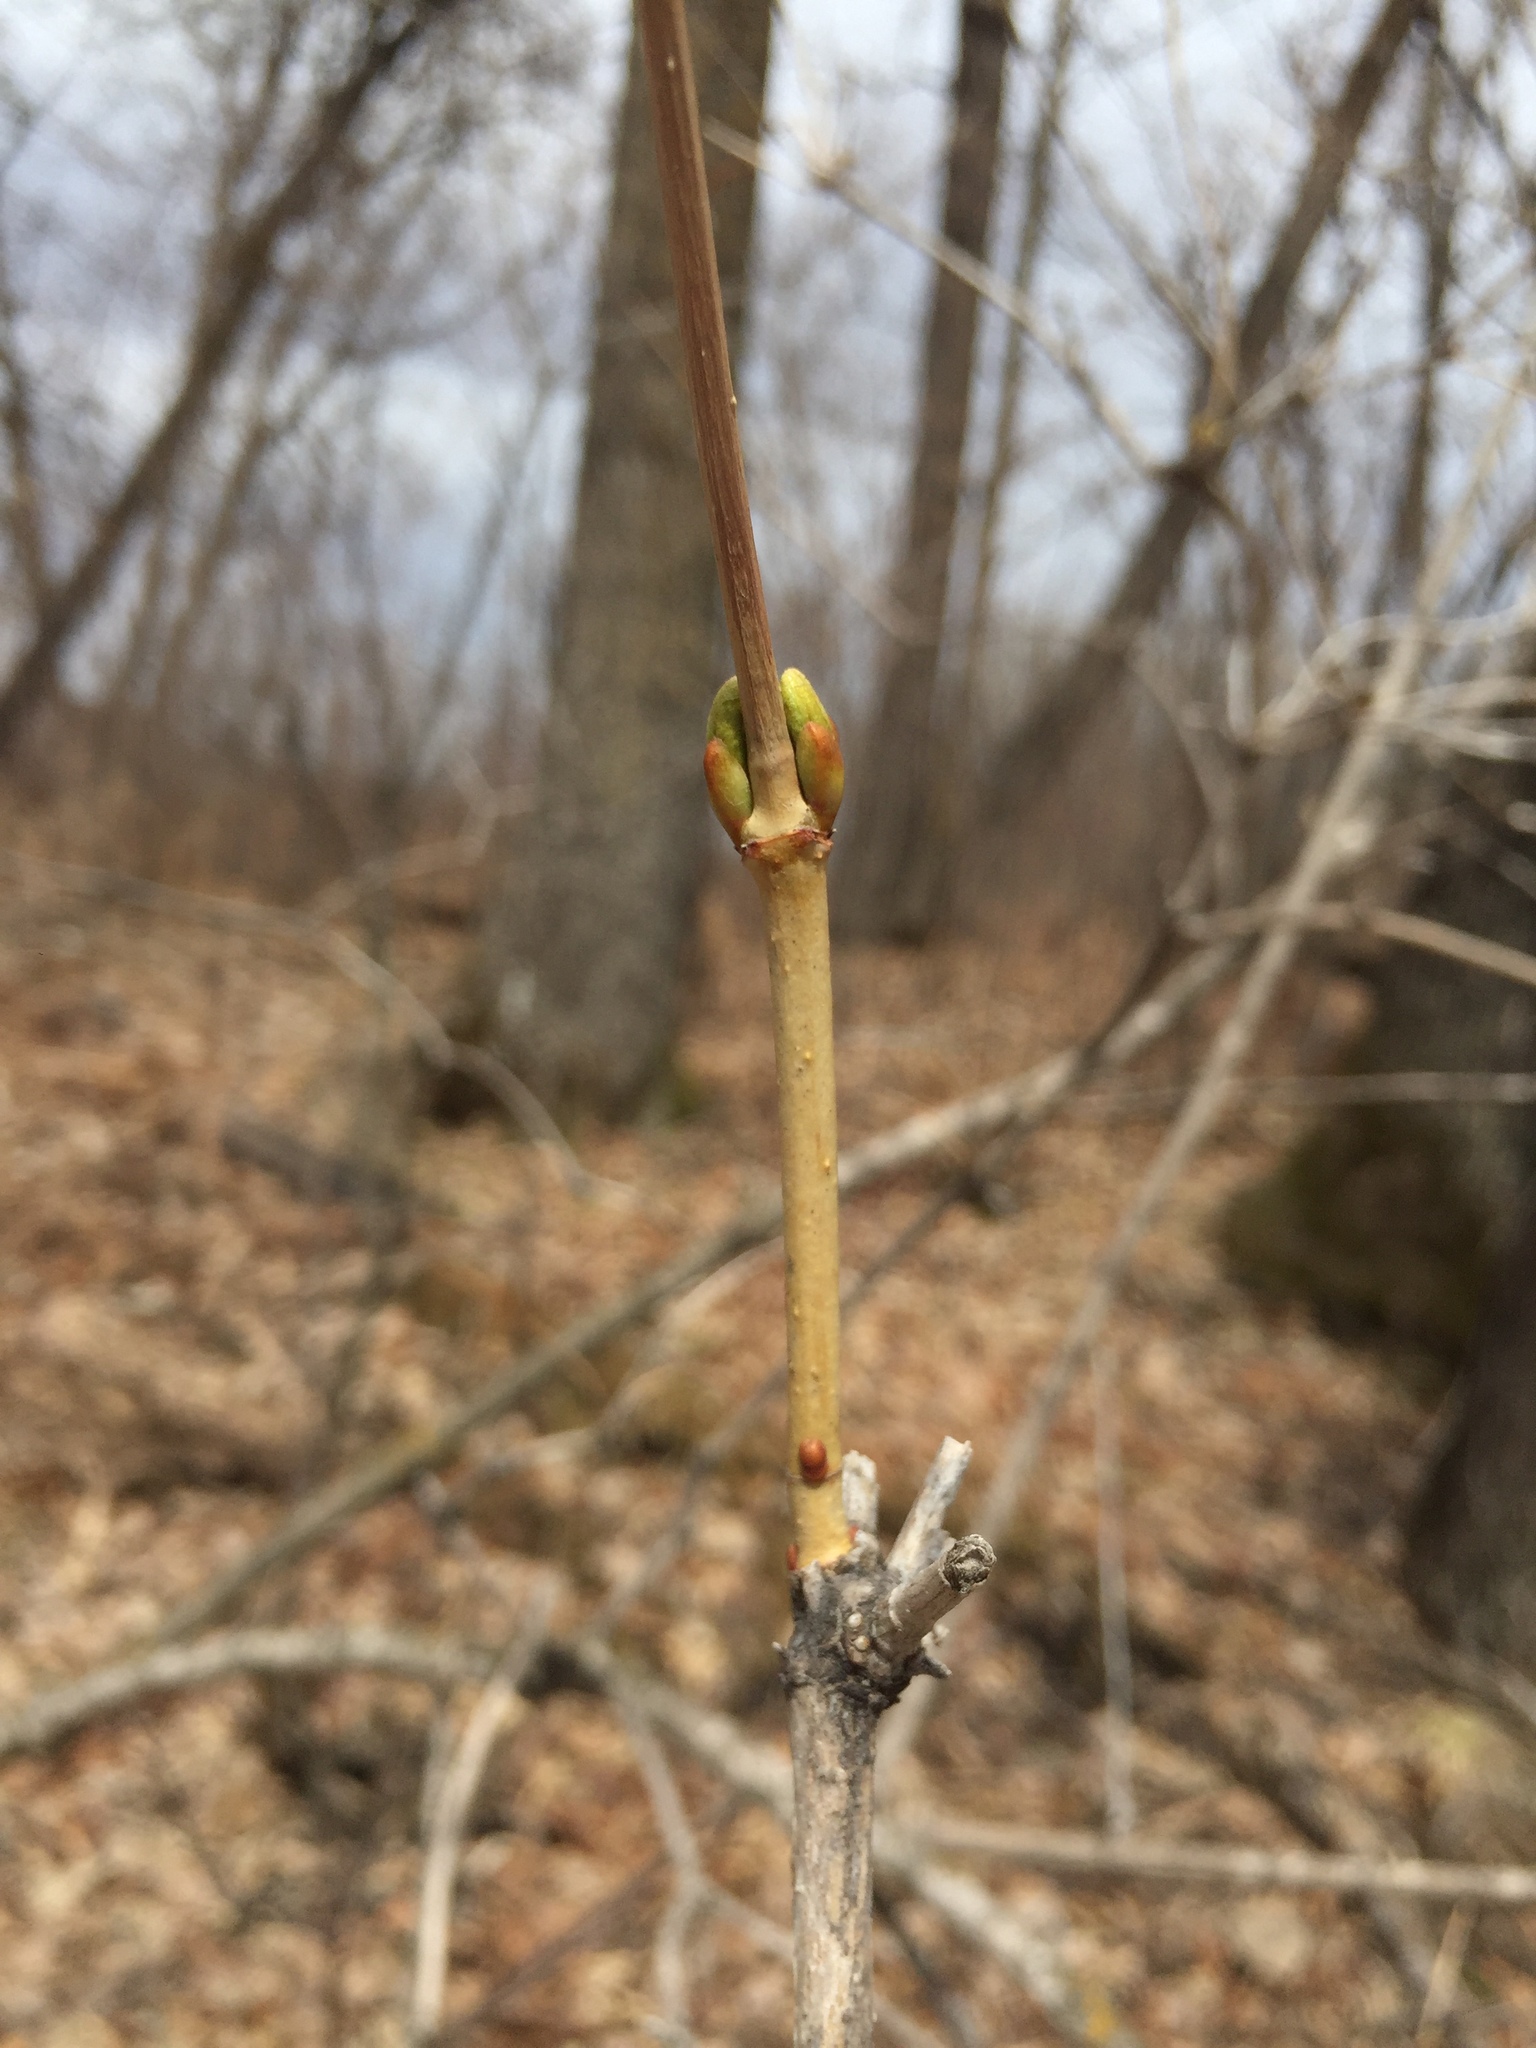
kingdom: Plantae
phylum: Tracheophyta
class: Magnoliopsida
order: Dipsacales
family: Viburnaceae
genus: Viburnum
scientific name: Viburnum opulus
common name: Guelder-rose
